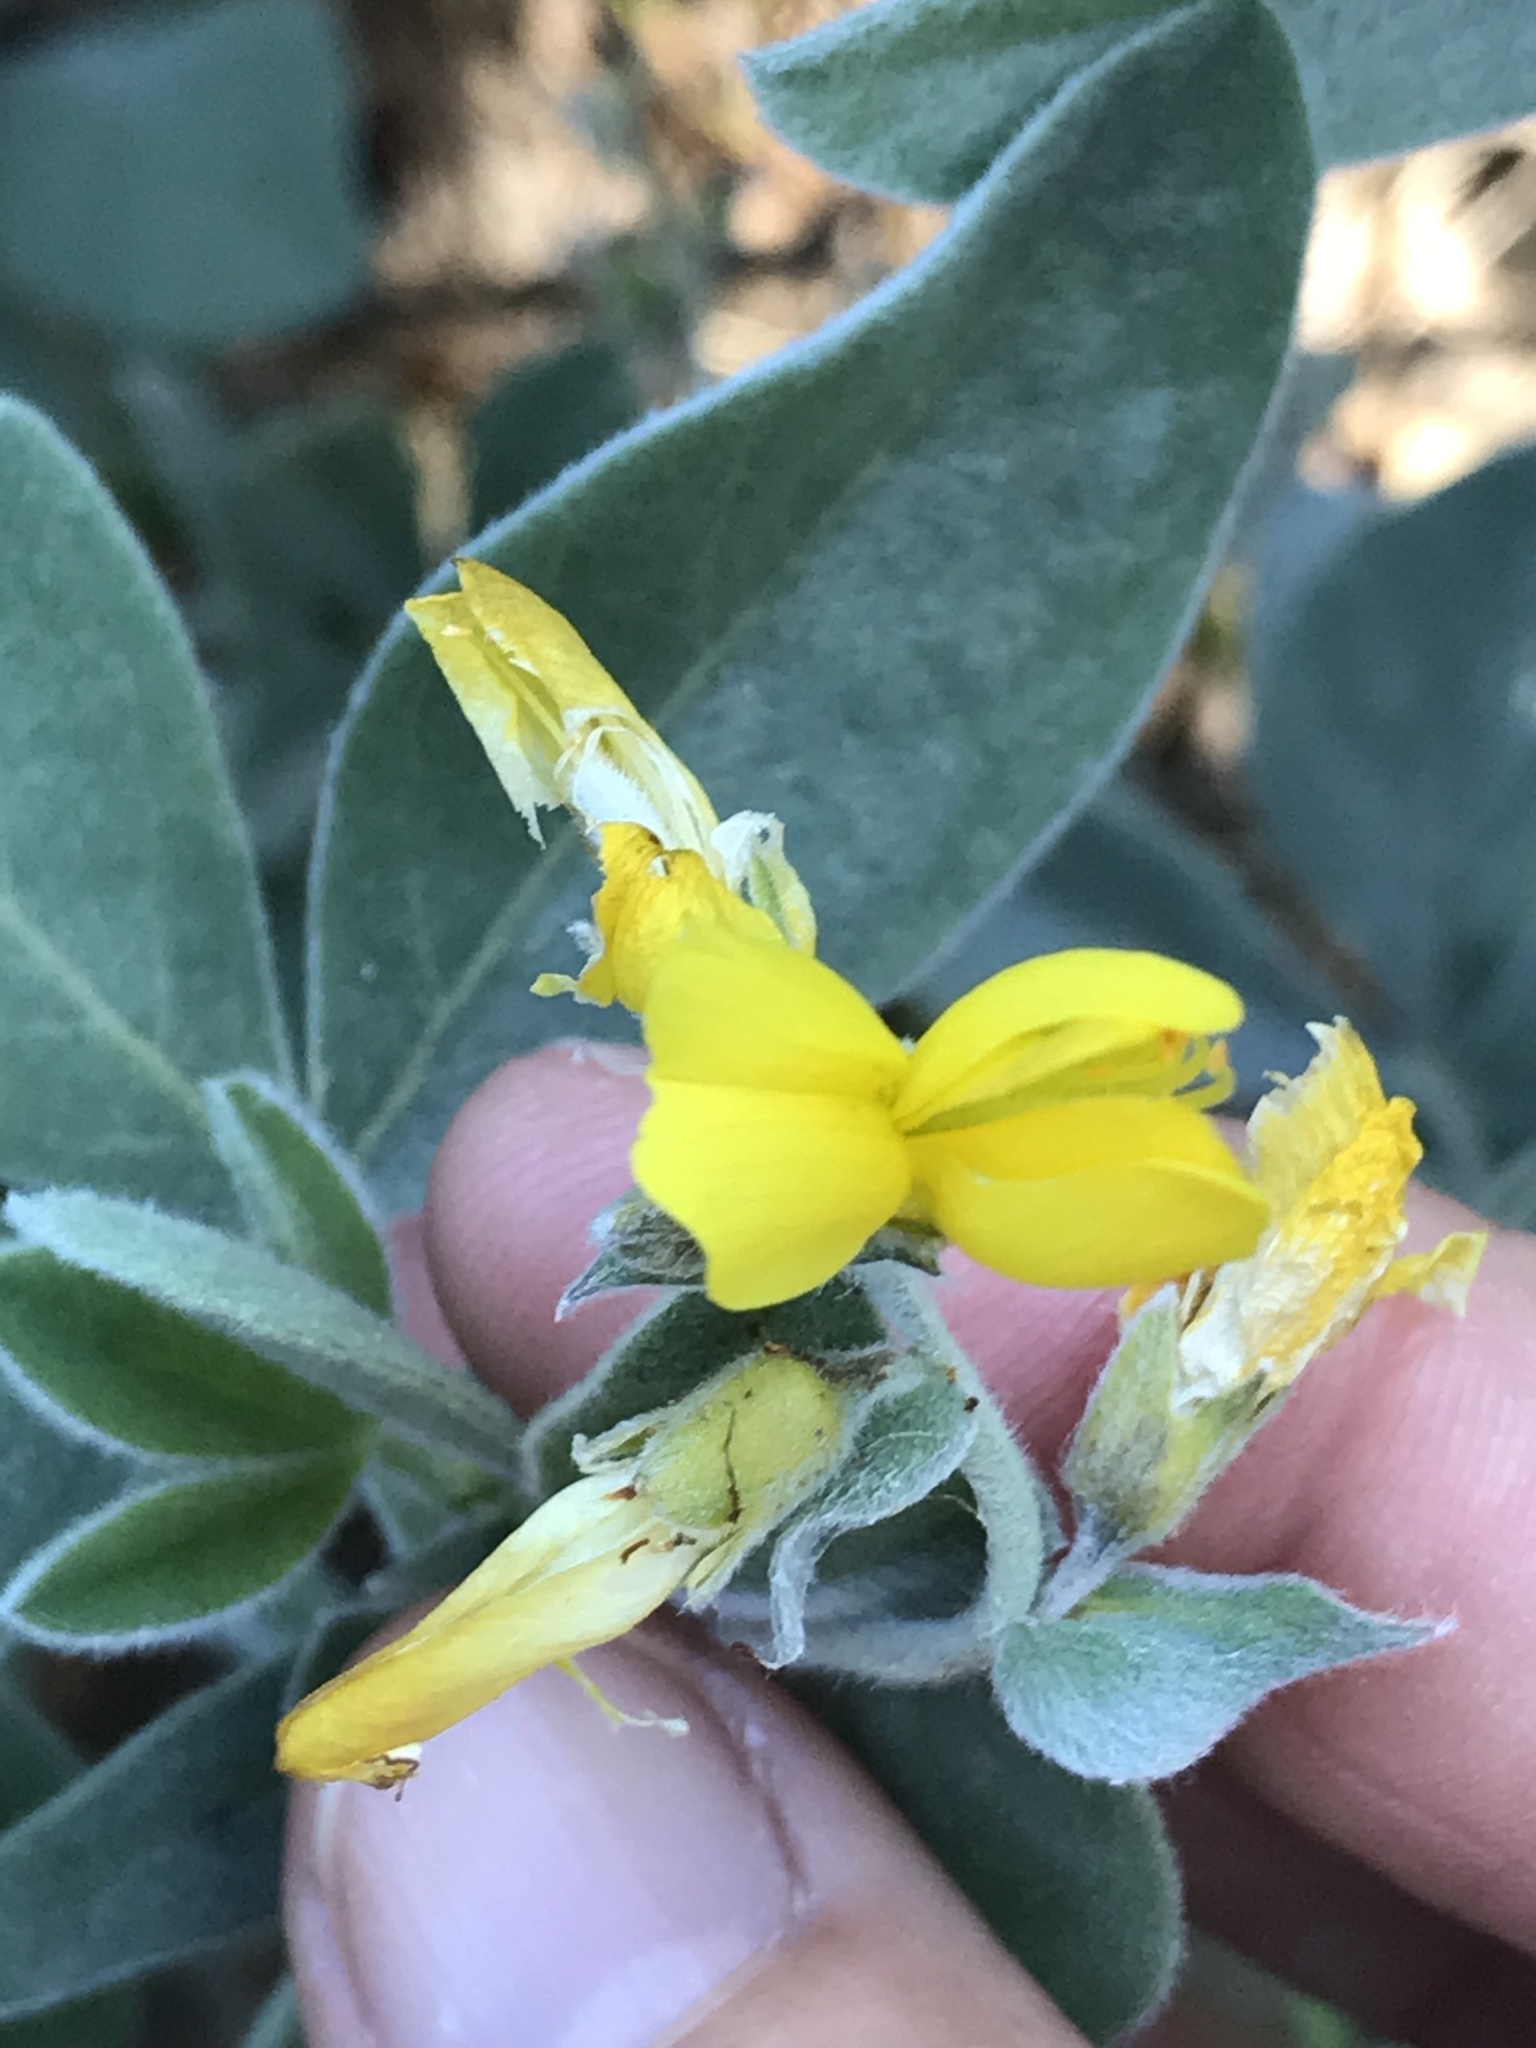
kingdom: Plantae
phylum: Tracheophyta
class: Magnoliopsida
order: Fabales
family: Fabaceae
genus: Thermopsis
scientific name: Thermopsis californica
